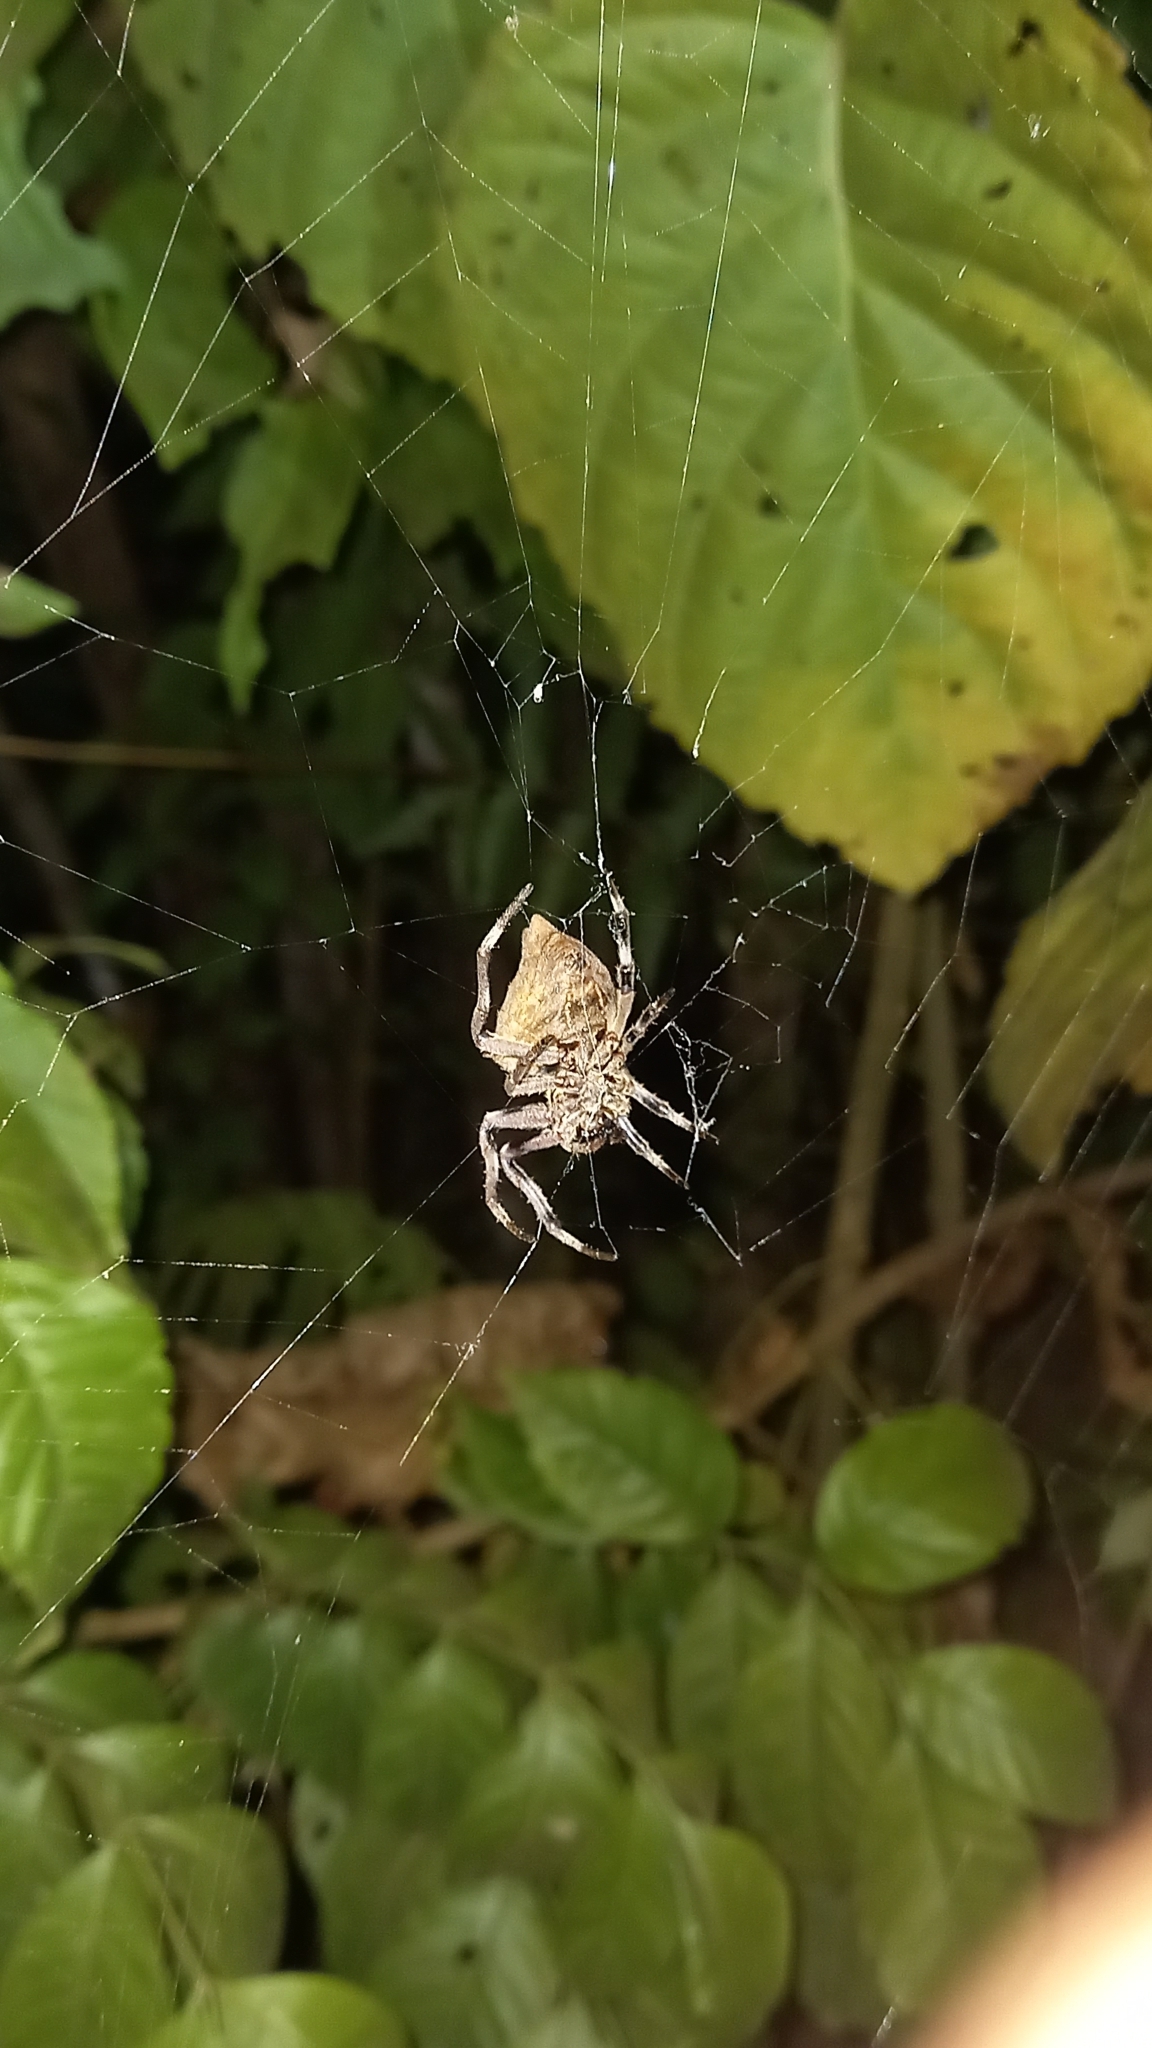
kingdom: Animalia
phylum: Arthropoda
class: Arachnida
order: Araneae
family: Araneidae
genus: Parawixia
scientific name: Parawixia dehaani
